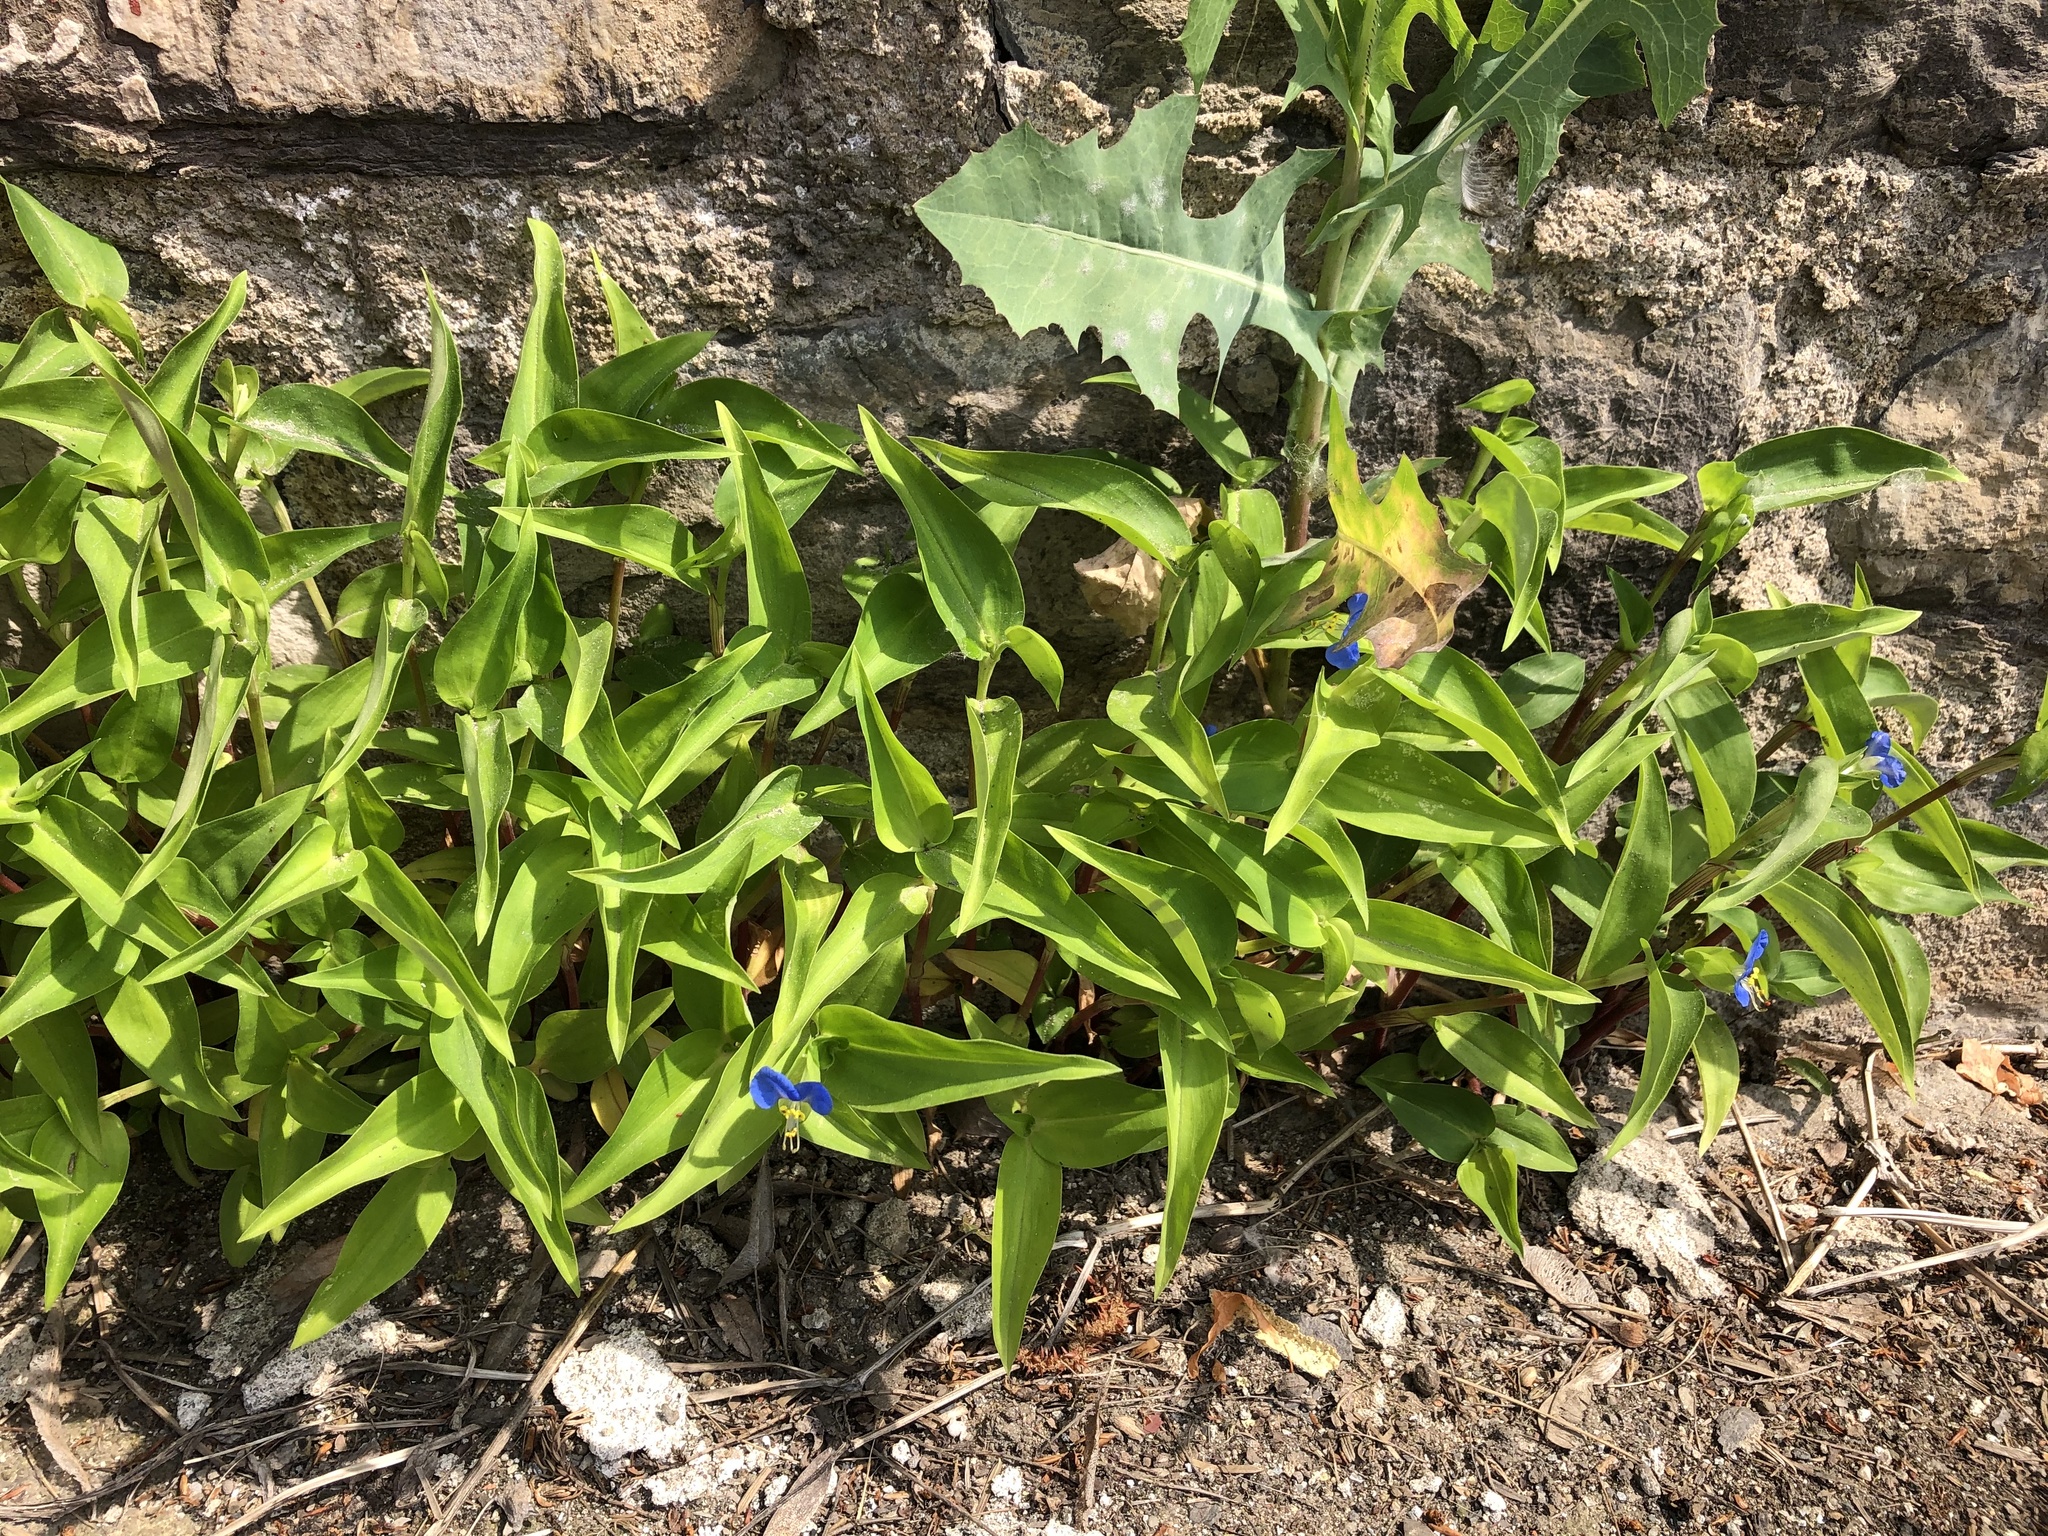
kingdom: Plantae
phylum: Tracheophyta
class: Liliopsida
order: Commelinales
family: Commelinaceae
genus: Commelina
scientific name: Commelina communis
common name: Asiatic dayflower
